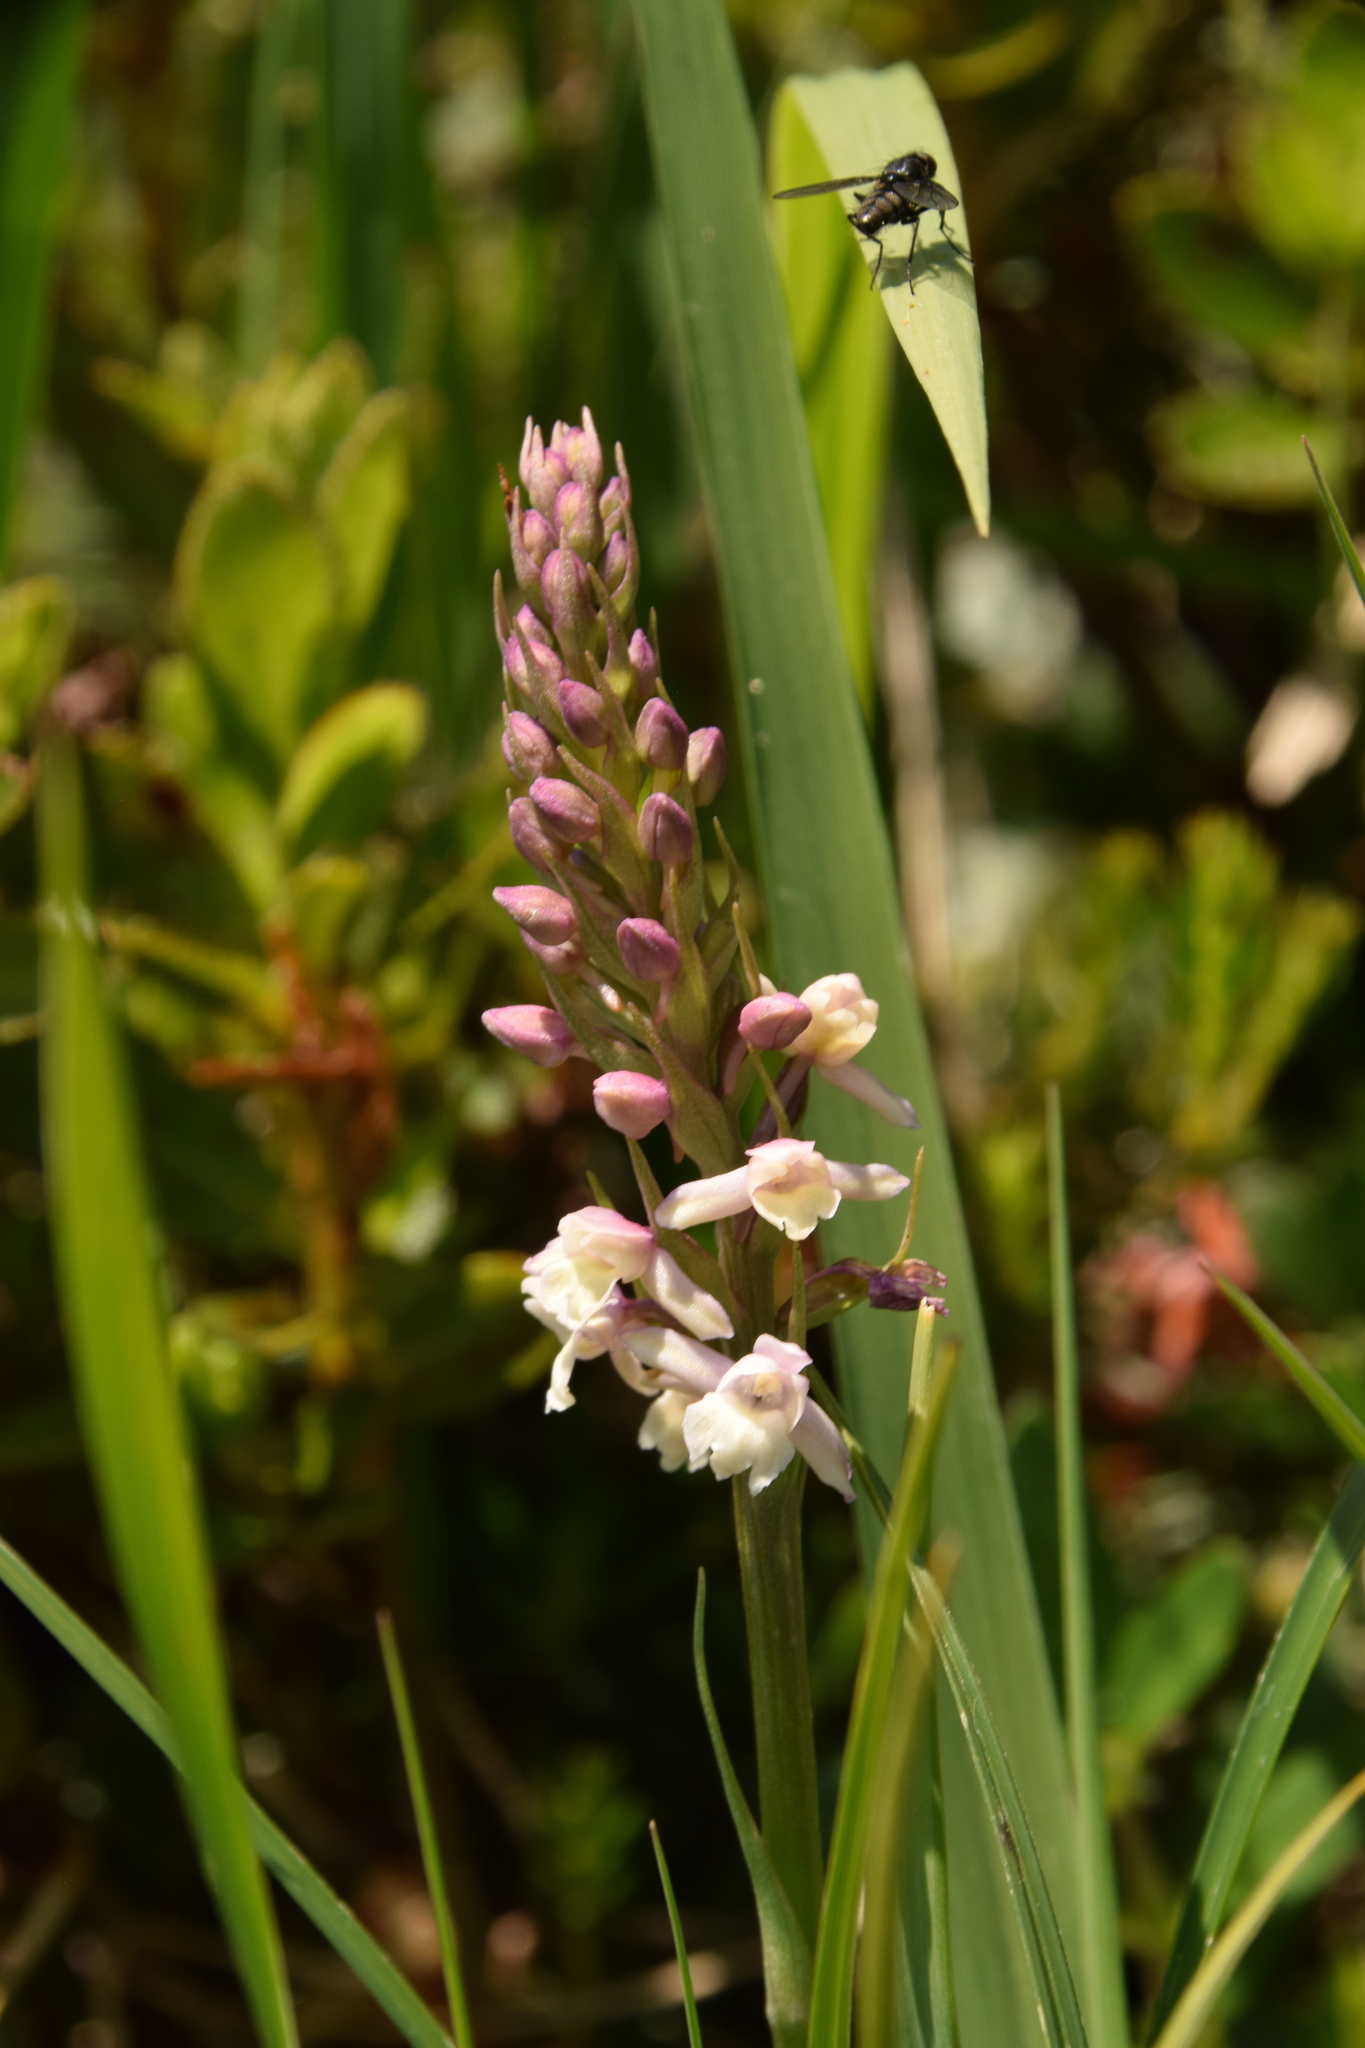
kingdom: Plantae
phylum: Tracheophyta
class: Liliopsida
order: Asparagales
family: Orchidaceae
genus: Gymnadenia
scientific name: Gymnadenia odoratissima
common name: Scented gymnadenia
